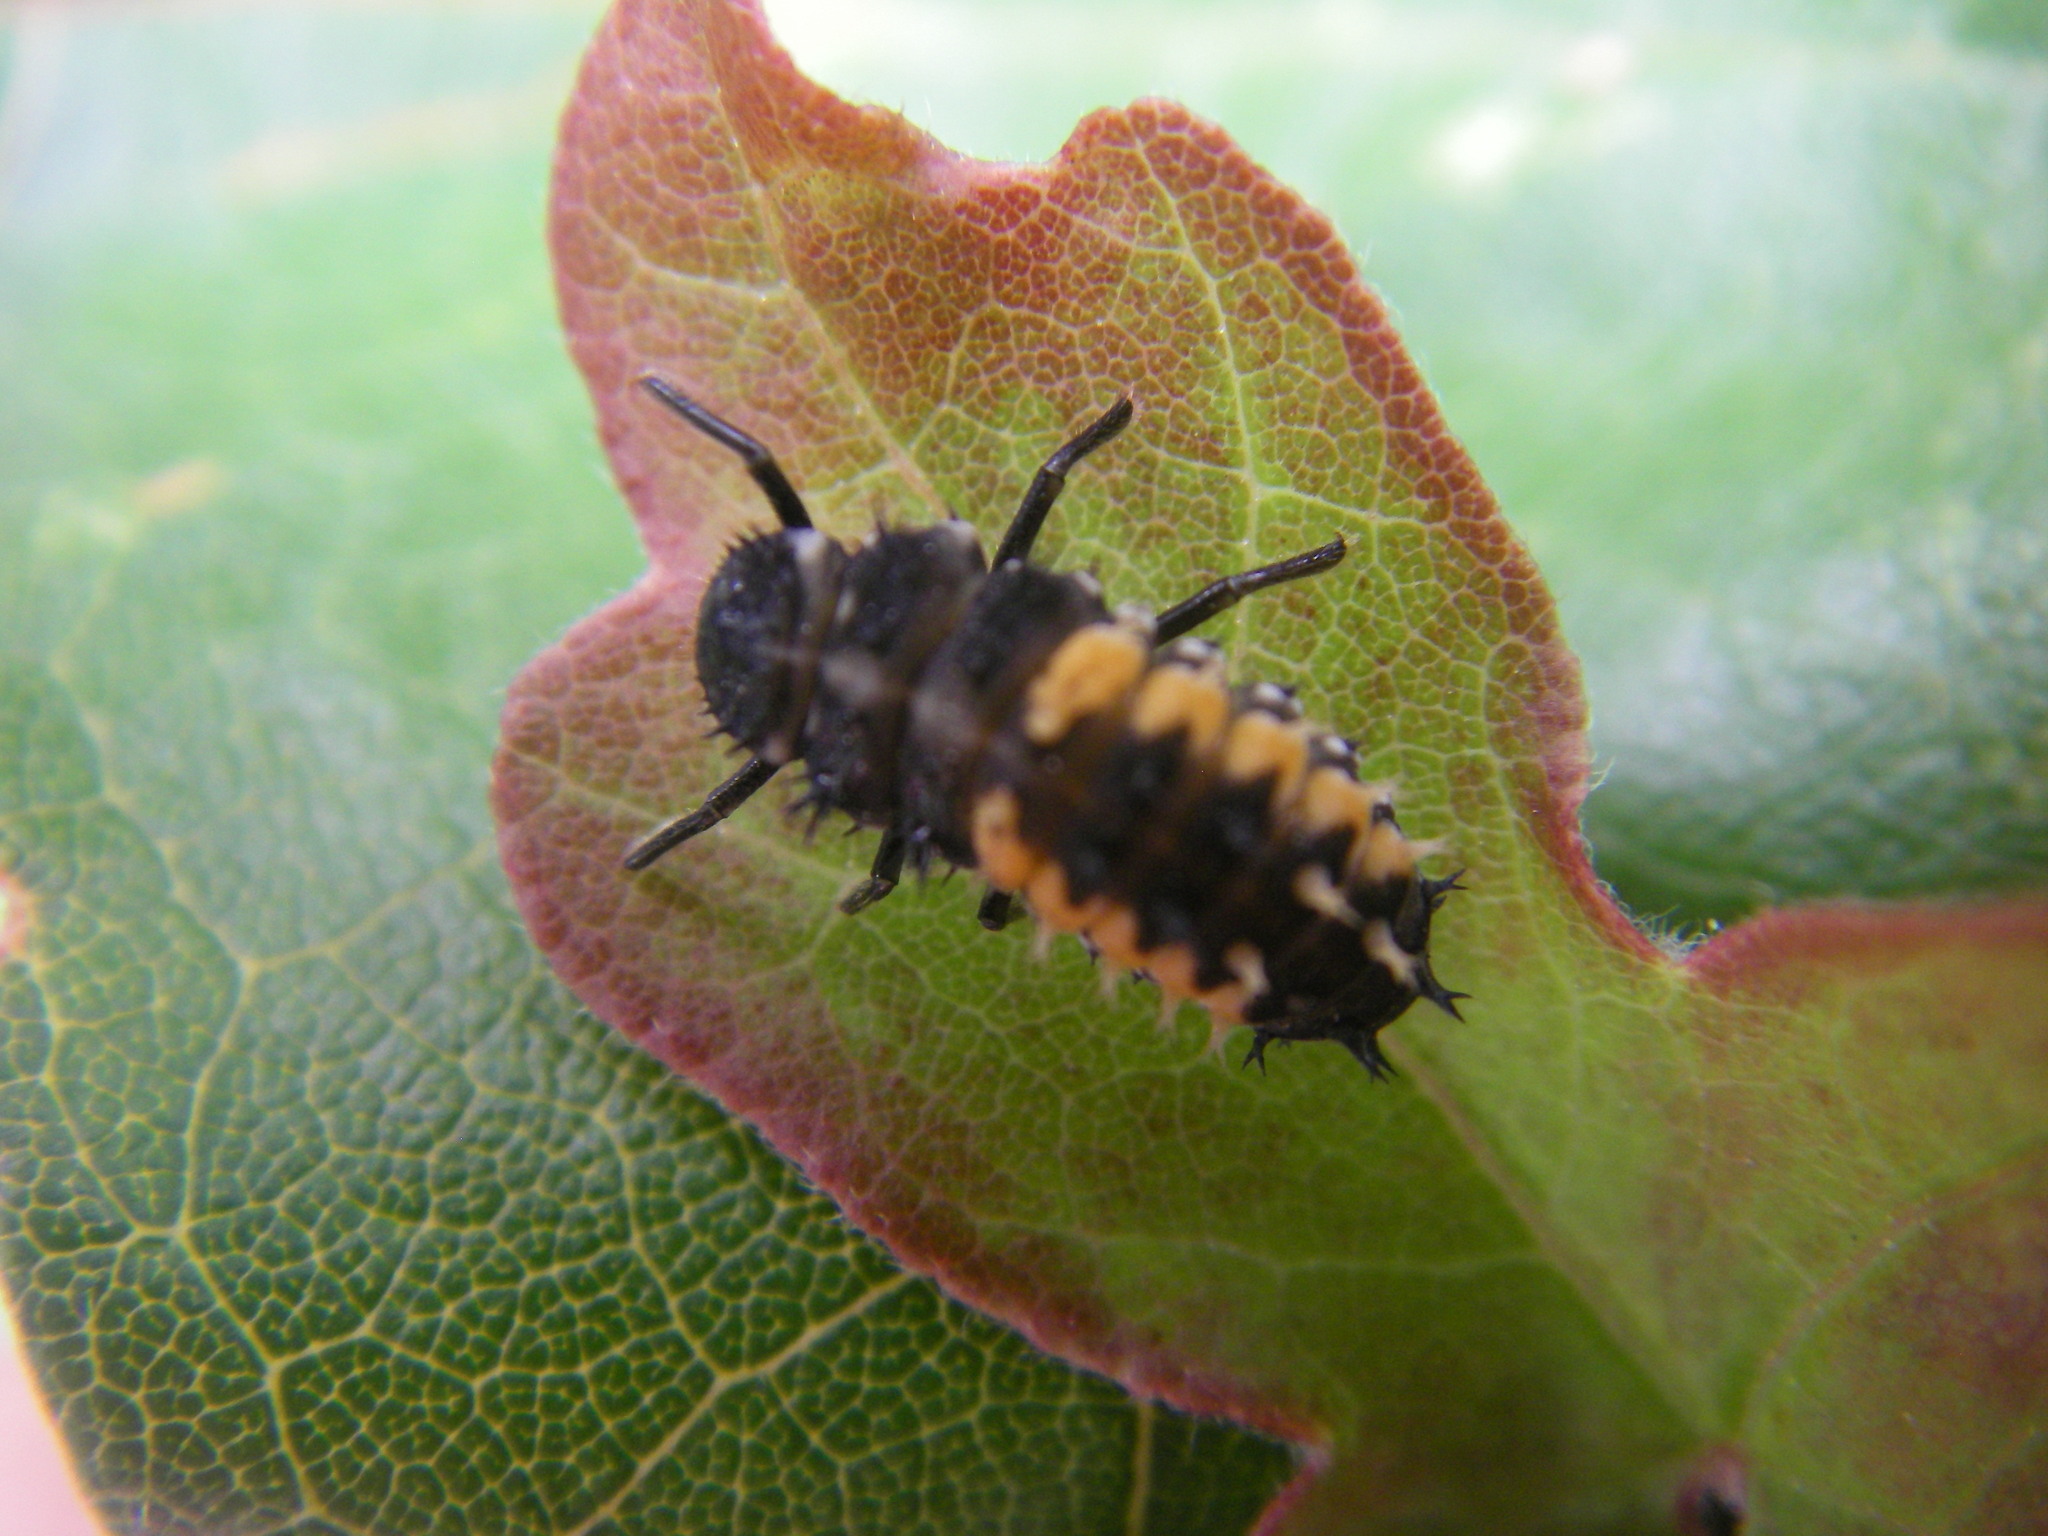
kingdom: Animalia
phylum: Arthropoda
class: Insecta
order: Coleoptera
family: Coccinellidae
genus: Harmonia
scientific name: Harmonia axyridis
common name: Harlequin ladybird
